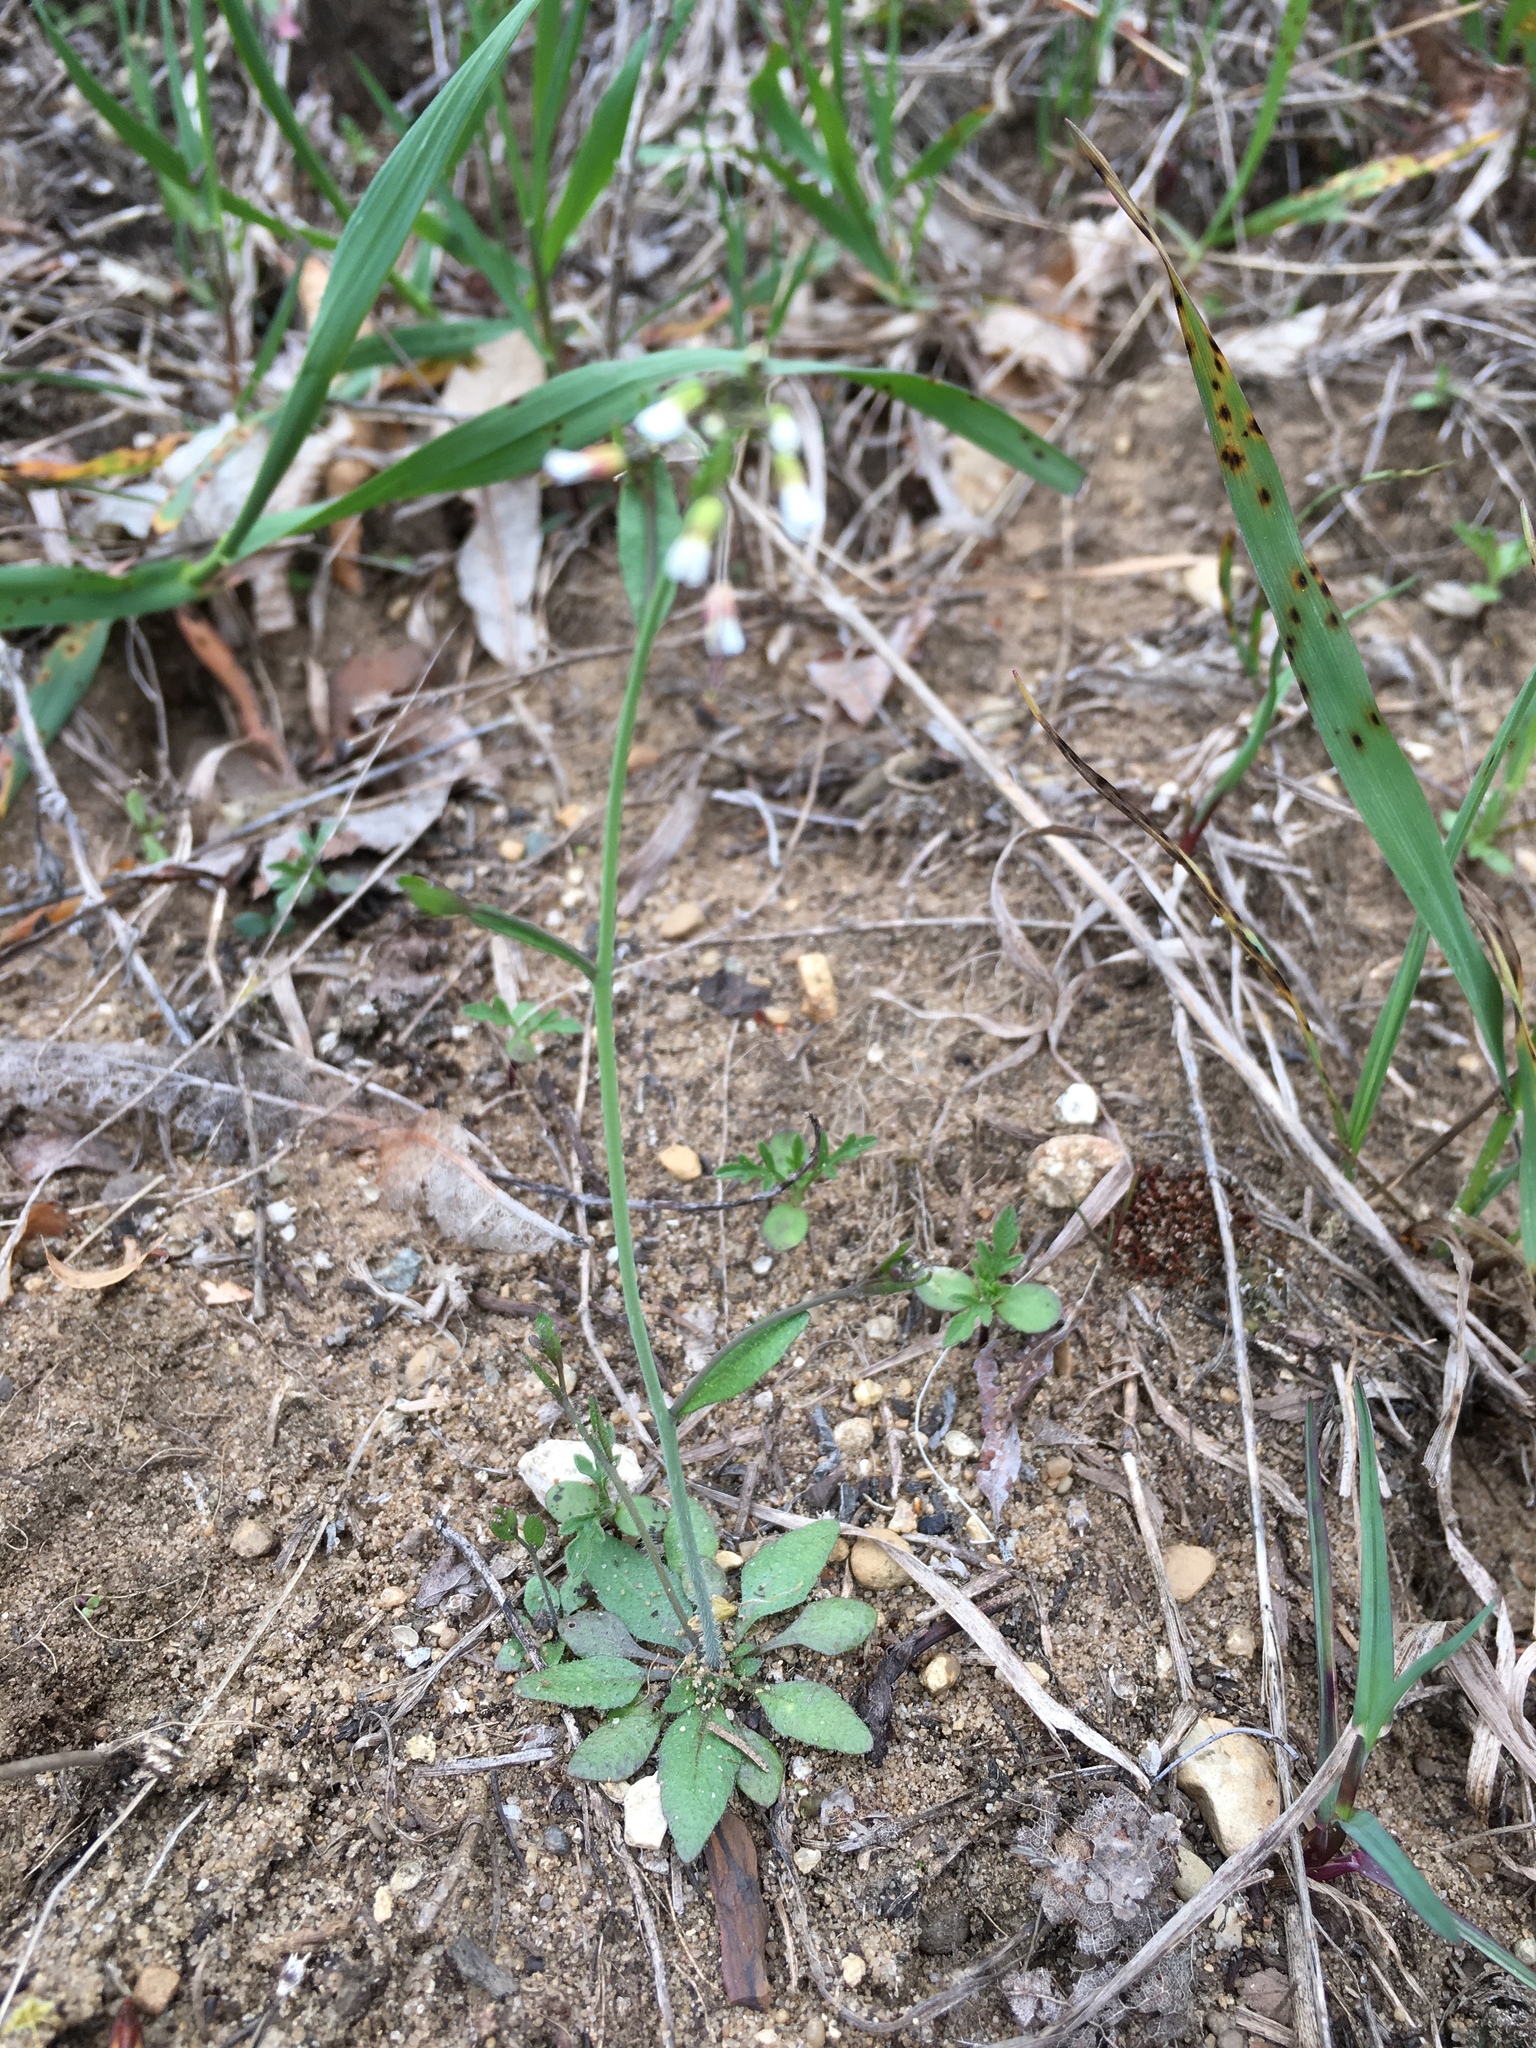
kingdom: Plantae
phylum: Tracheophyta
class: Magnoliopsida
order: Brassicales
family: Brassicaceae
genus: Arabidopsis
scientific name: Arabidopsis thaliana
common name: Thale cress
